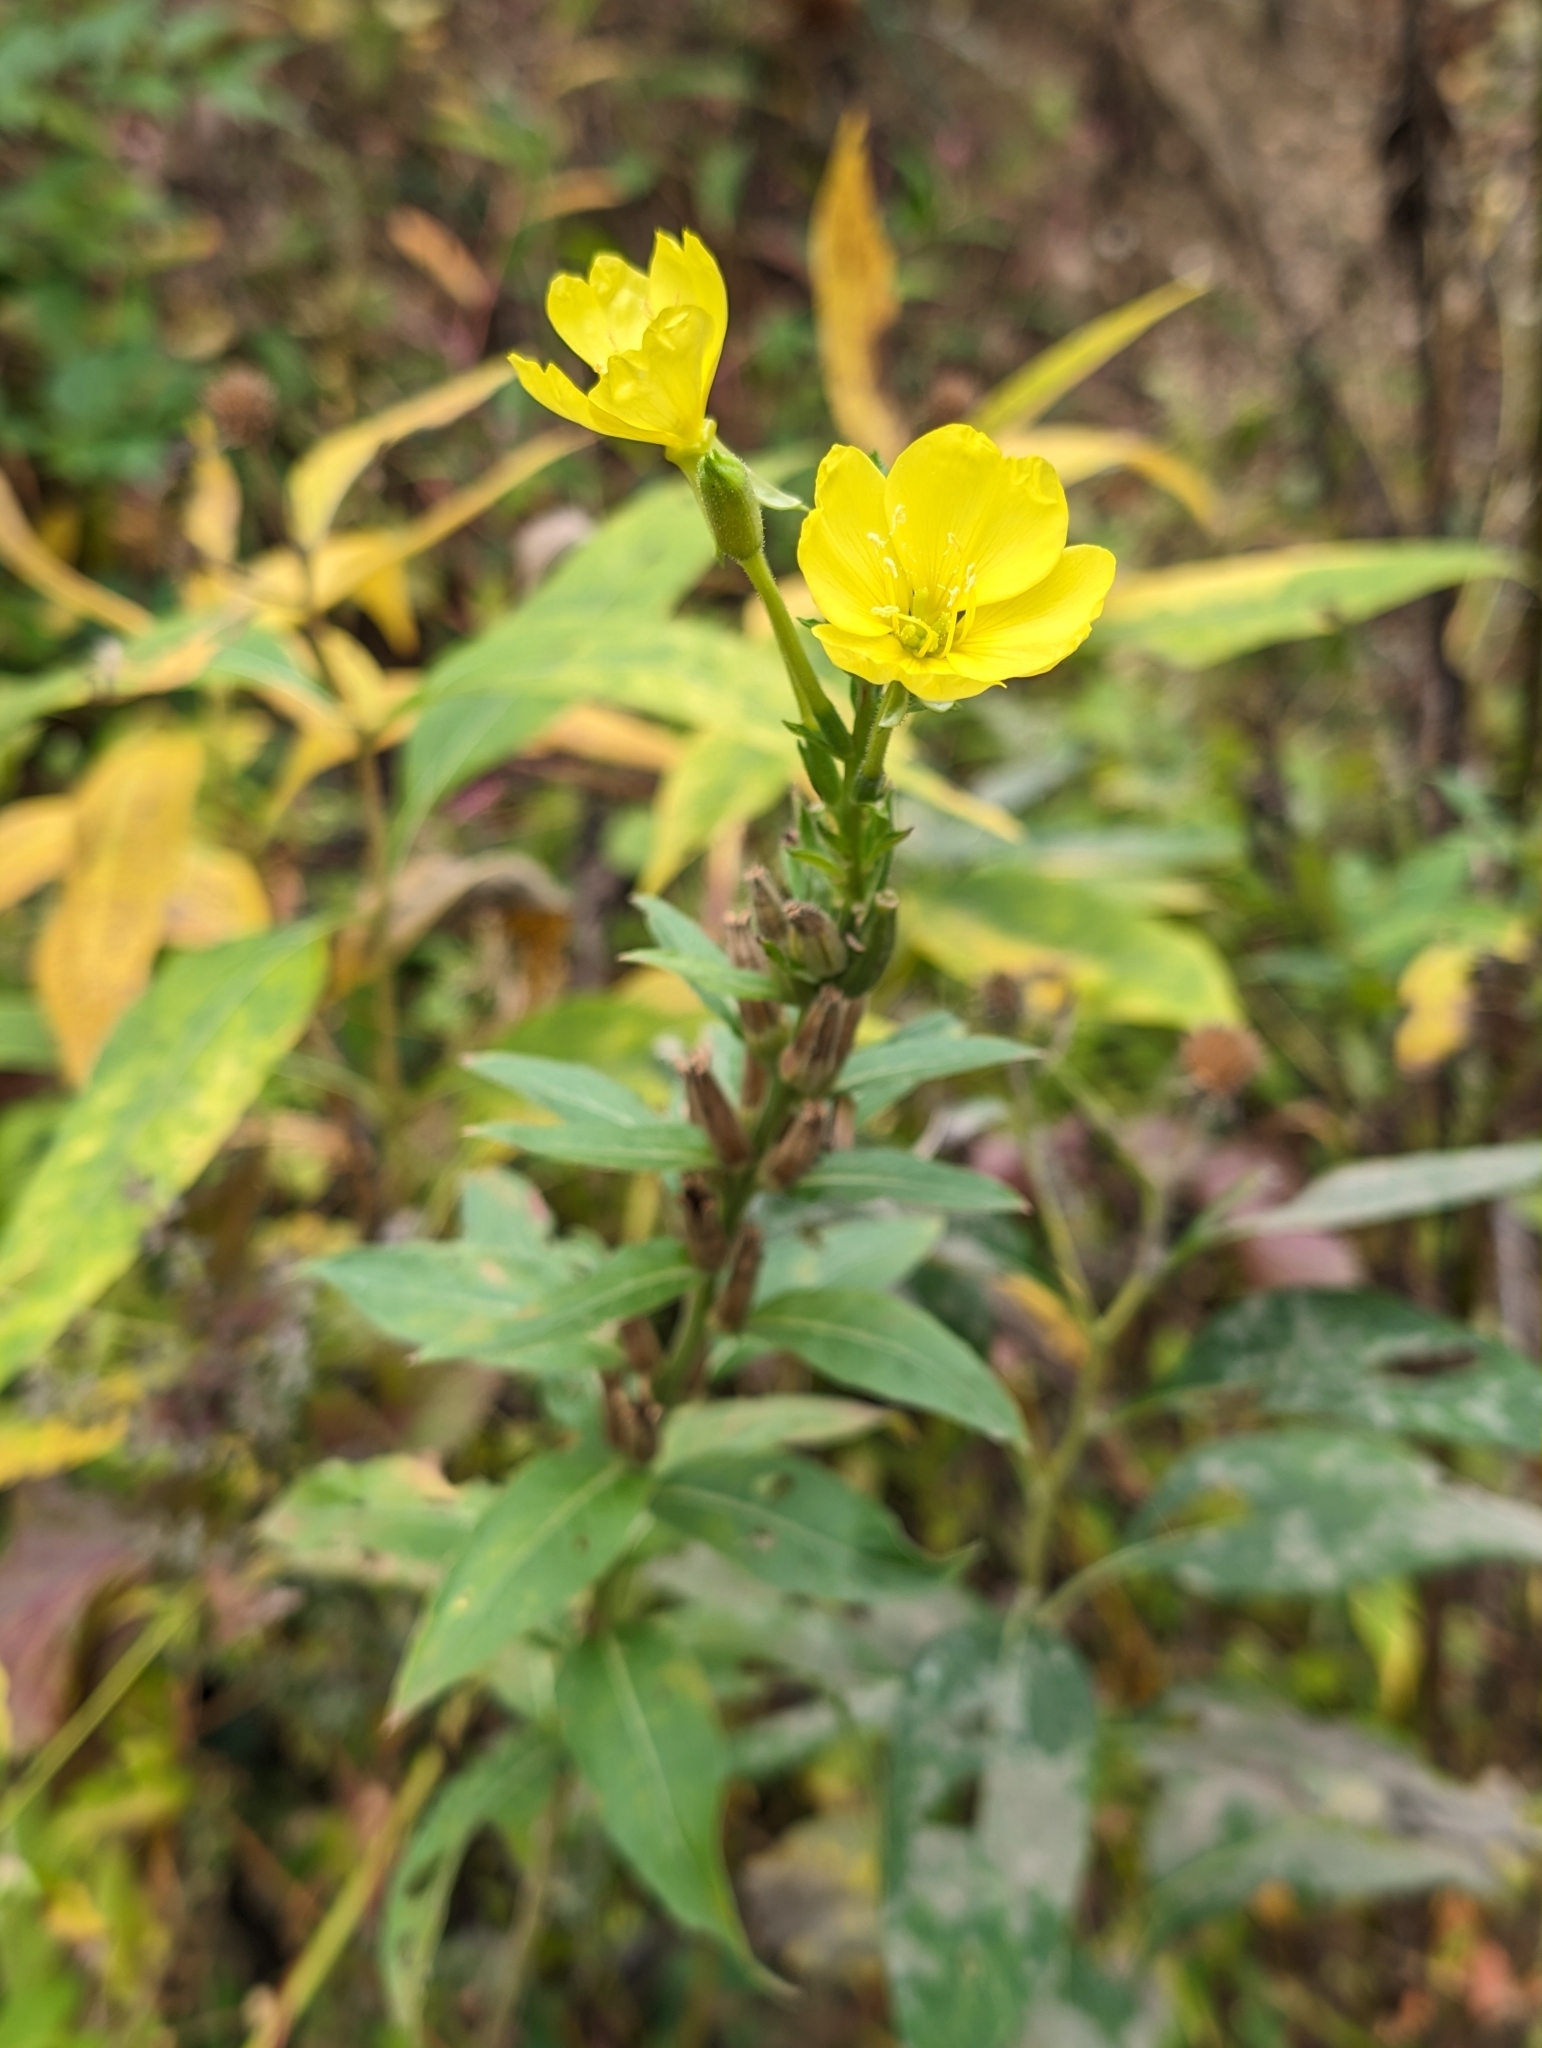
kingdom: Plantae
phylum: Tracheophyta
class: Magnoliopsida
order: Myrtales
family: Onagraceae
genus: Oenothera
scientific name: Oenothera biennis
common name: Common evening-primrose
